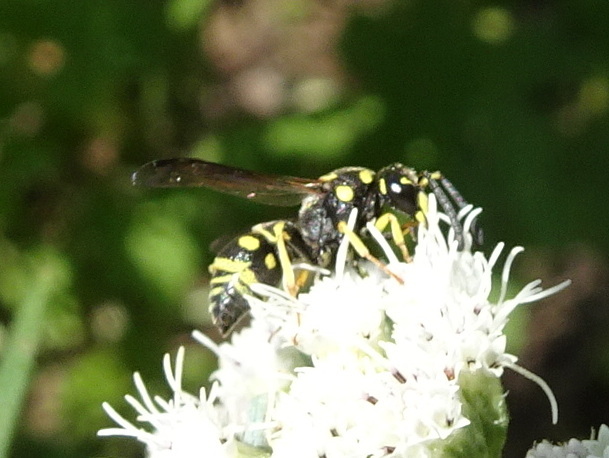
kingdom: Animalia
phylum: Arthropoda
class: Insecta
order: Hymenoptera
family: Eumenidae
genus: Rhynchalastor
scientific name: Rhynchalastor anormis
